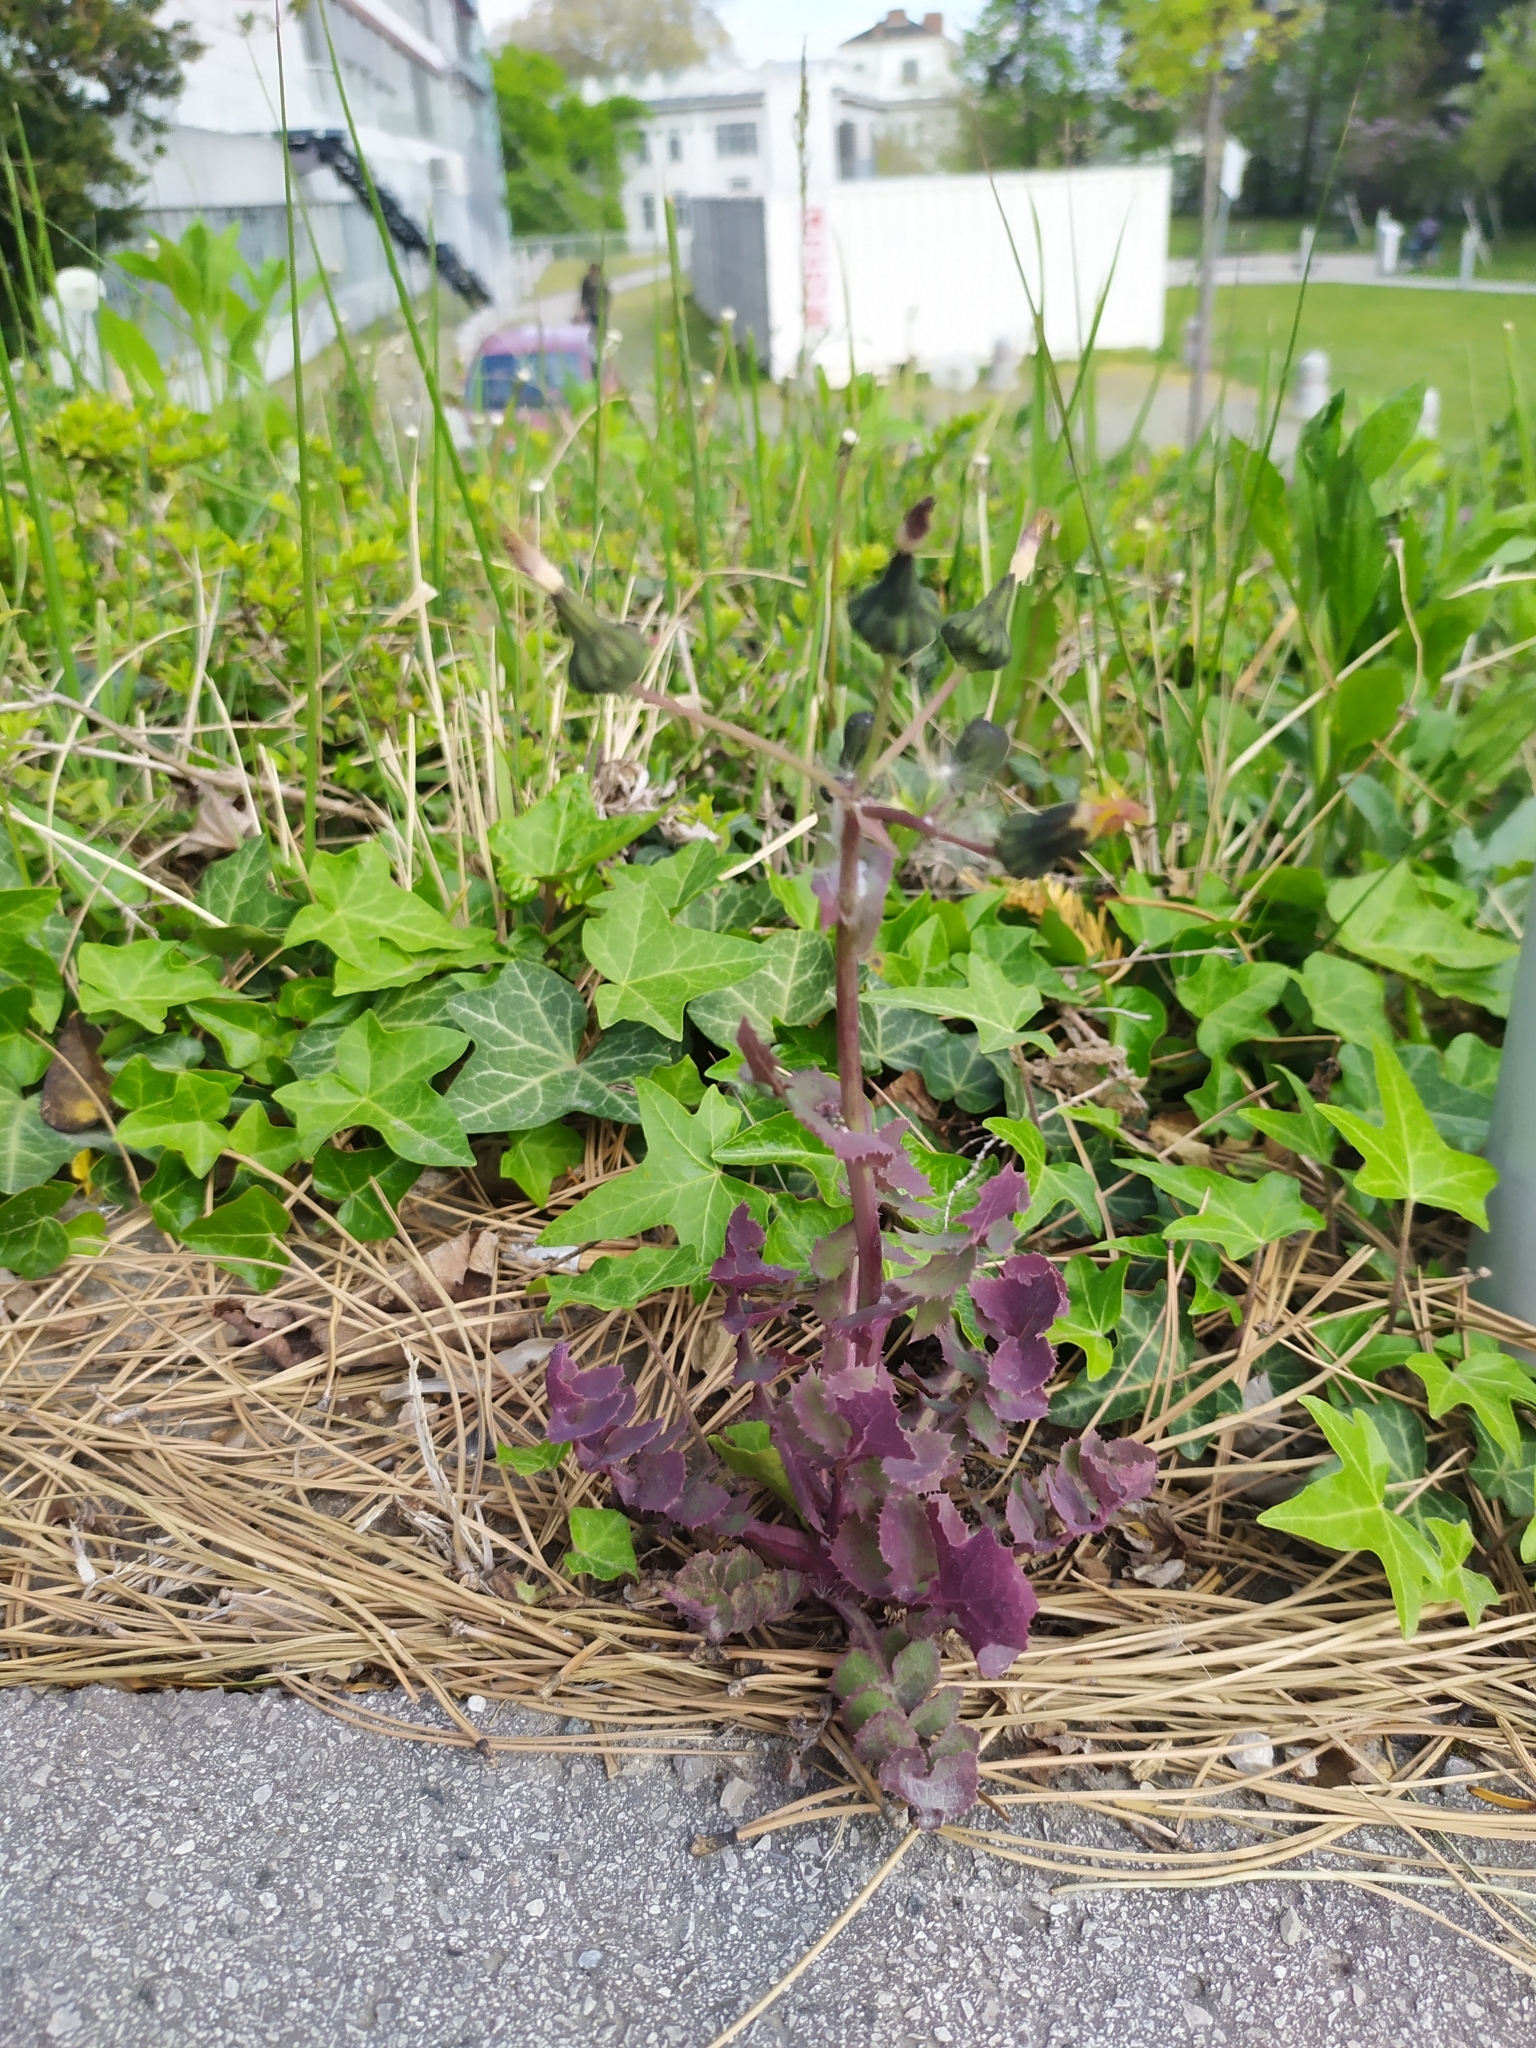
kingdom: Plantae
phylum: Tracheophyta
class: Magnoliopsida
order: Asterales
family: Asteraceae
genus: Sonchus
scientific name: Sonchus oleraceus
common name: Common sowthistle
